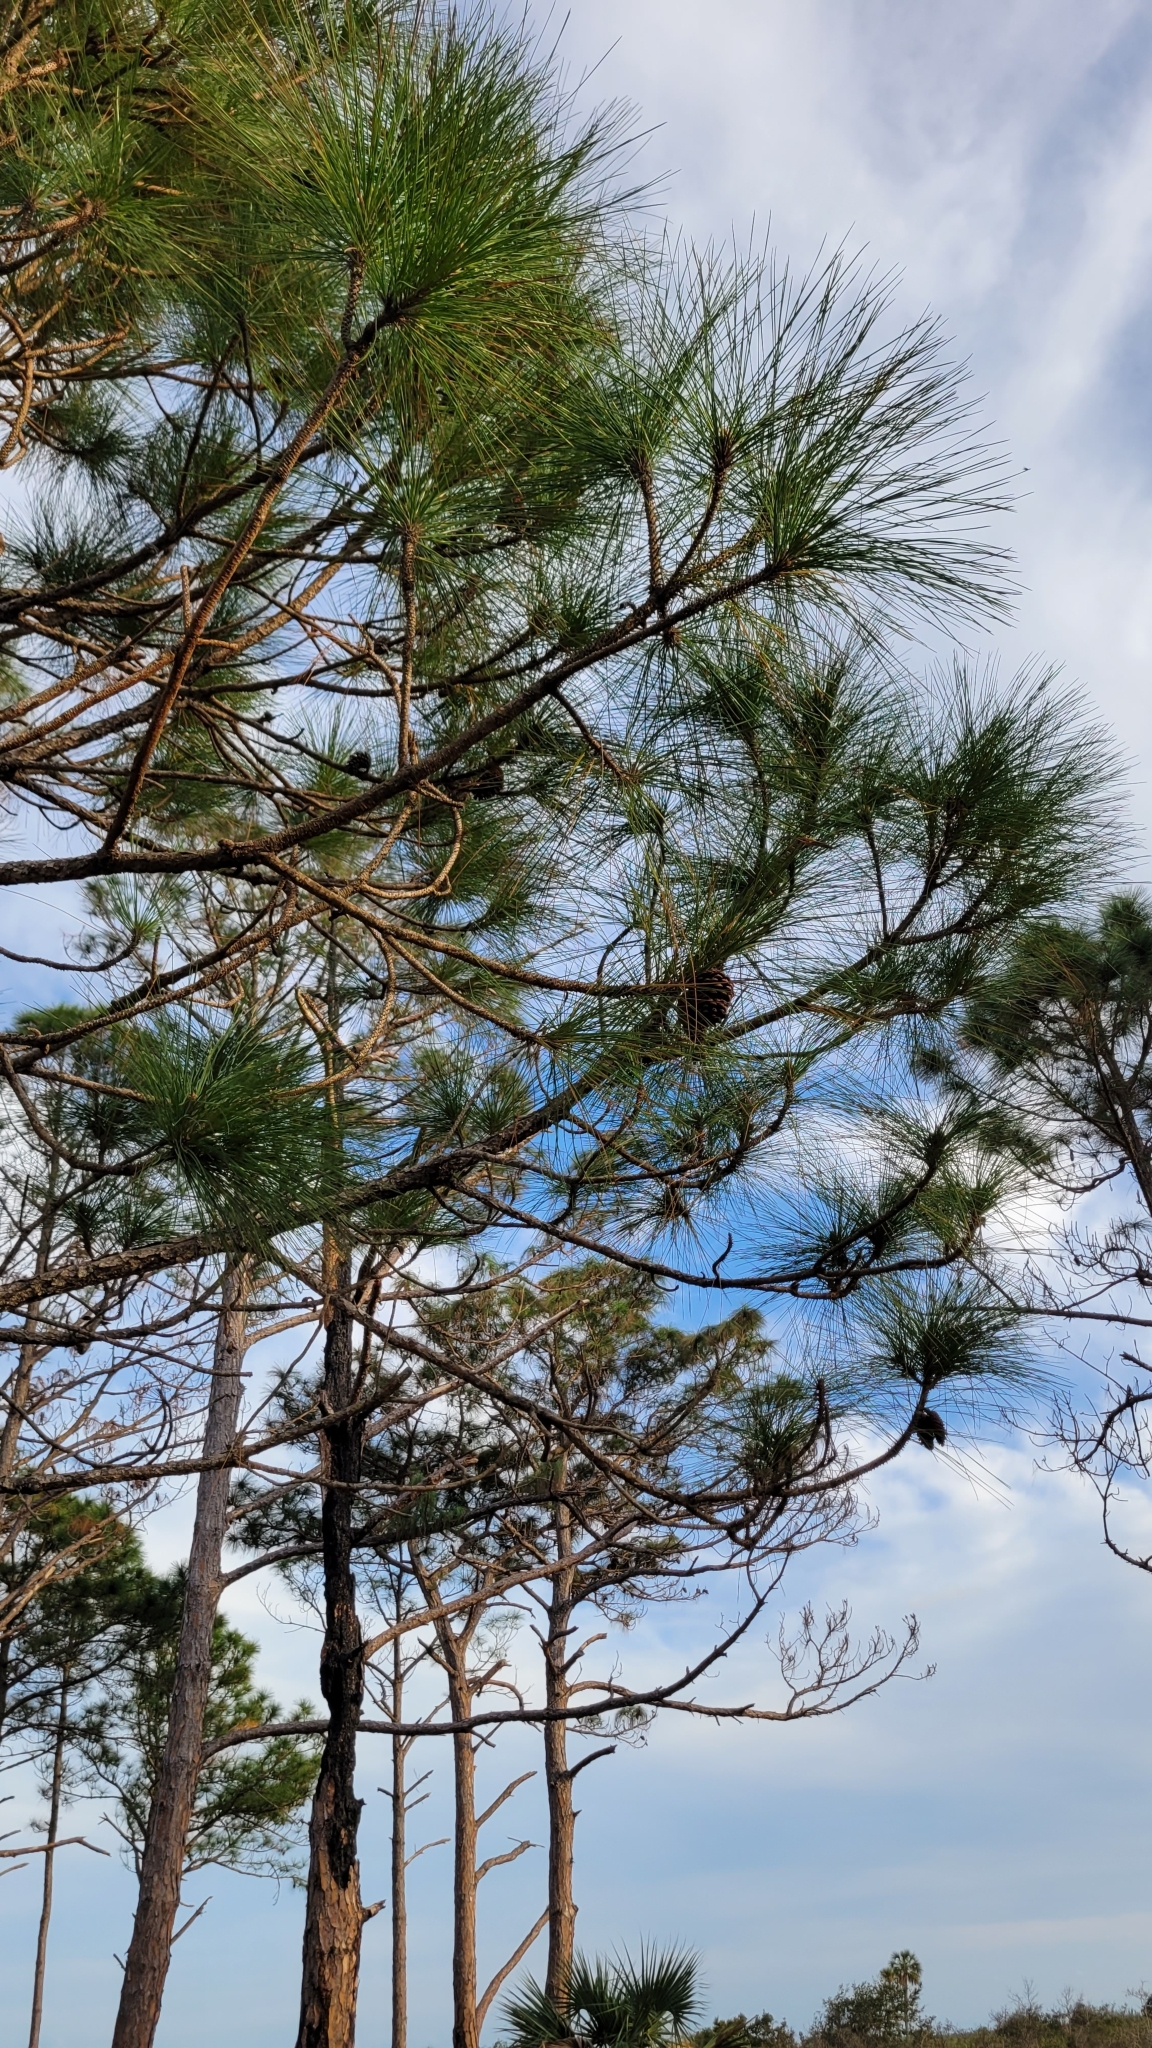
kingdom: Plantae
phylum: Tracheophyta
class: Pinopsida
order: Pinales
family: Pinaceae
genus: Pinus
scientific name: Pinus elliottii
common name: Slash pine
